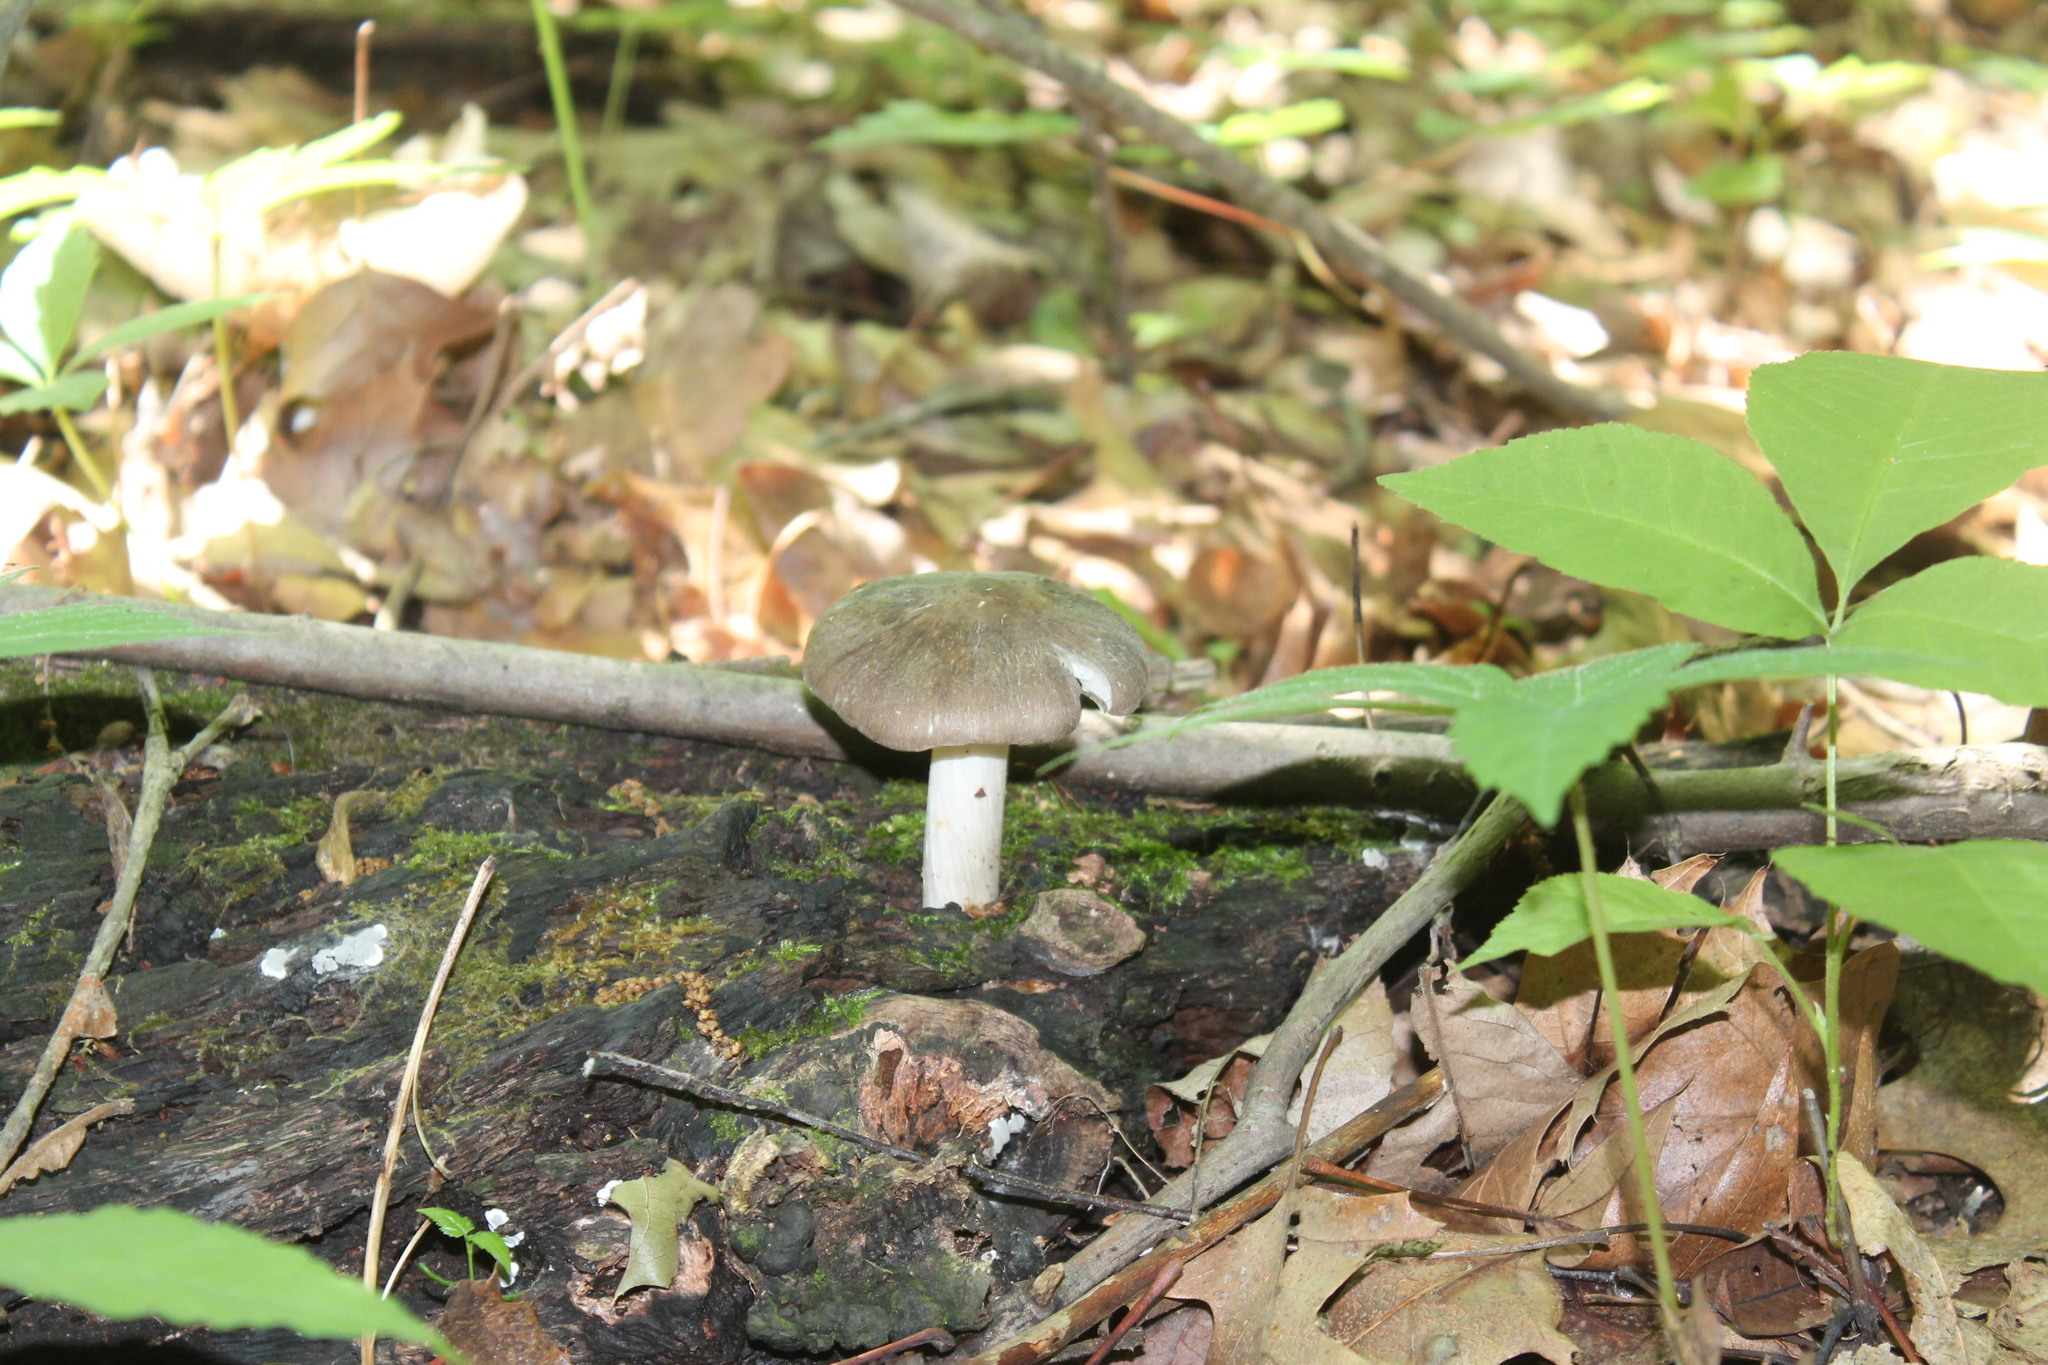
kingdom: Fungi
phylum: Basidiomycota
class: Agaricomycetes
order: Agaricales
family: Tricholomataceae
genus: Megacollybia
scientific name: Megacollybia rodmanii
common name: Eastern american platterful mushroom
